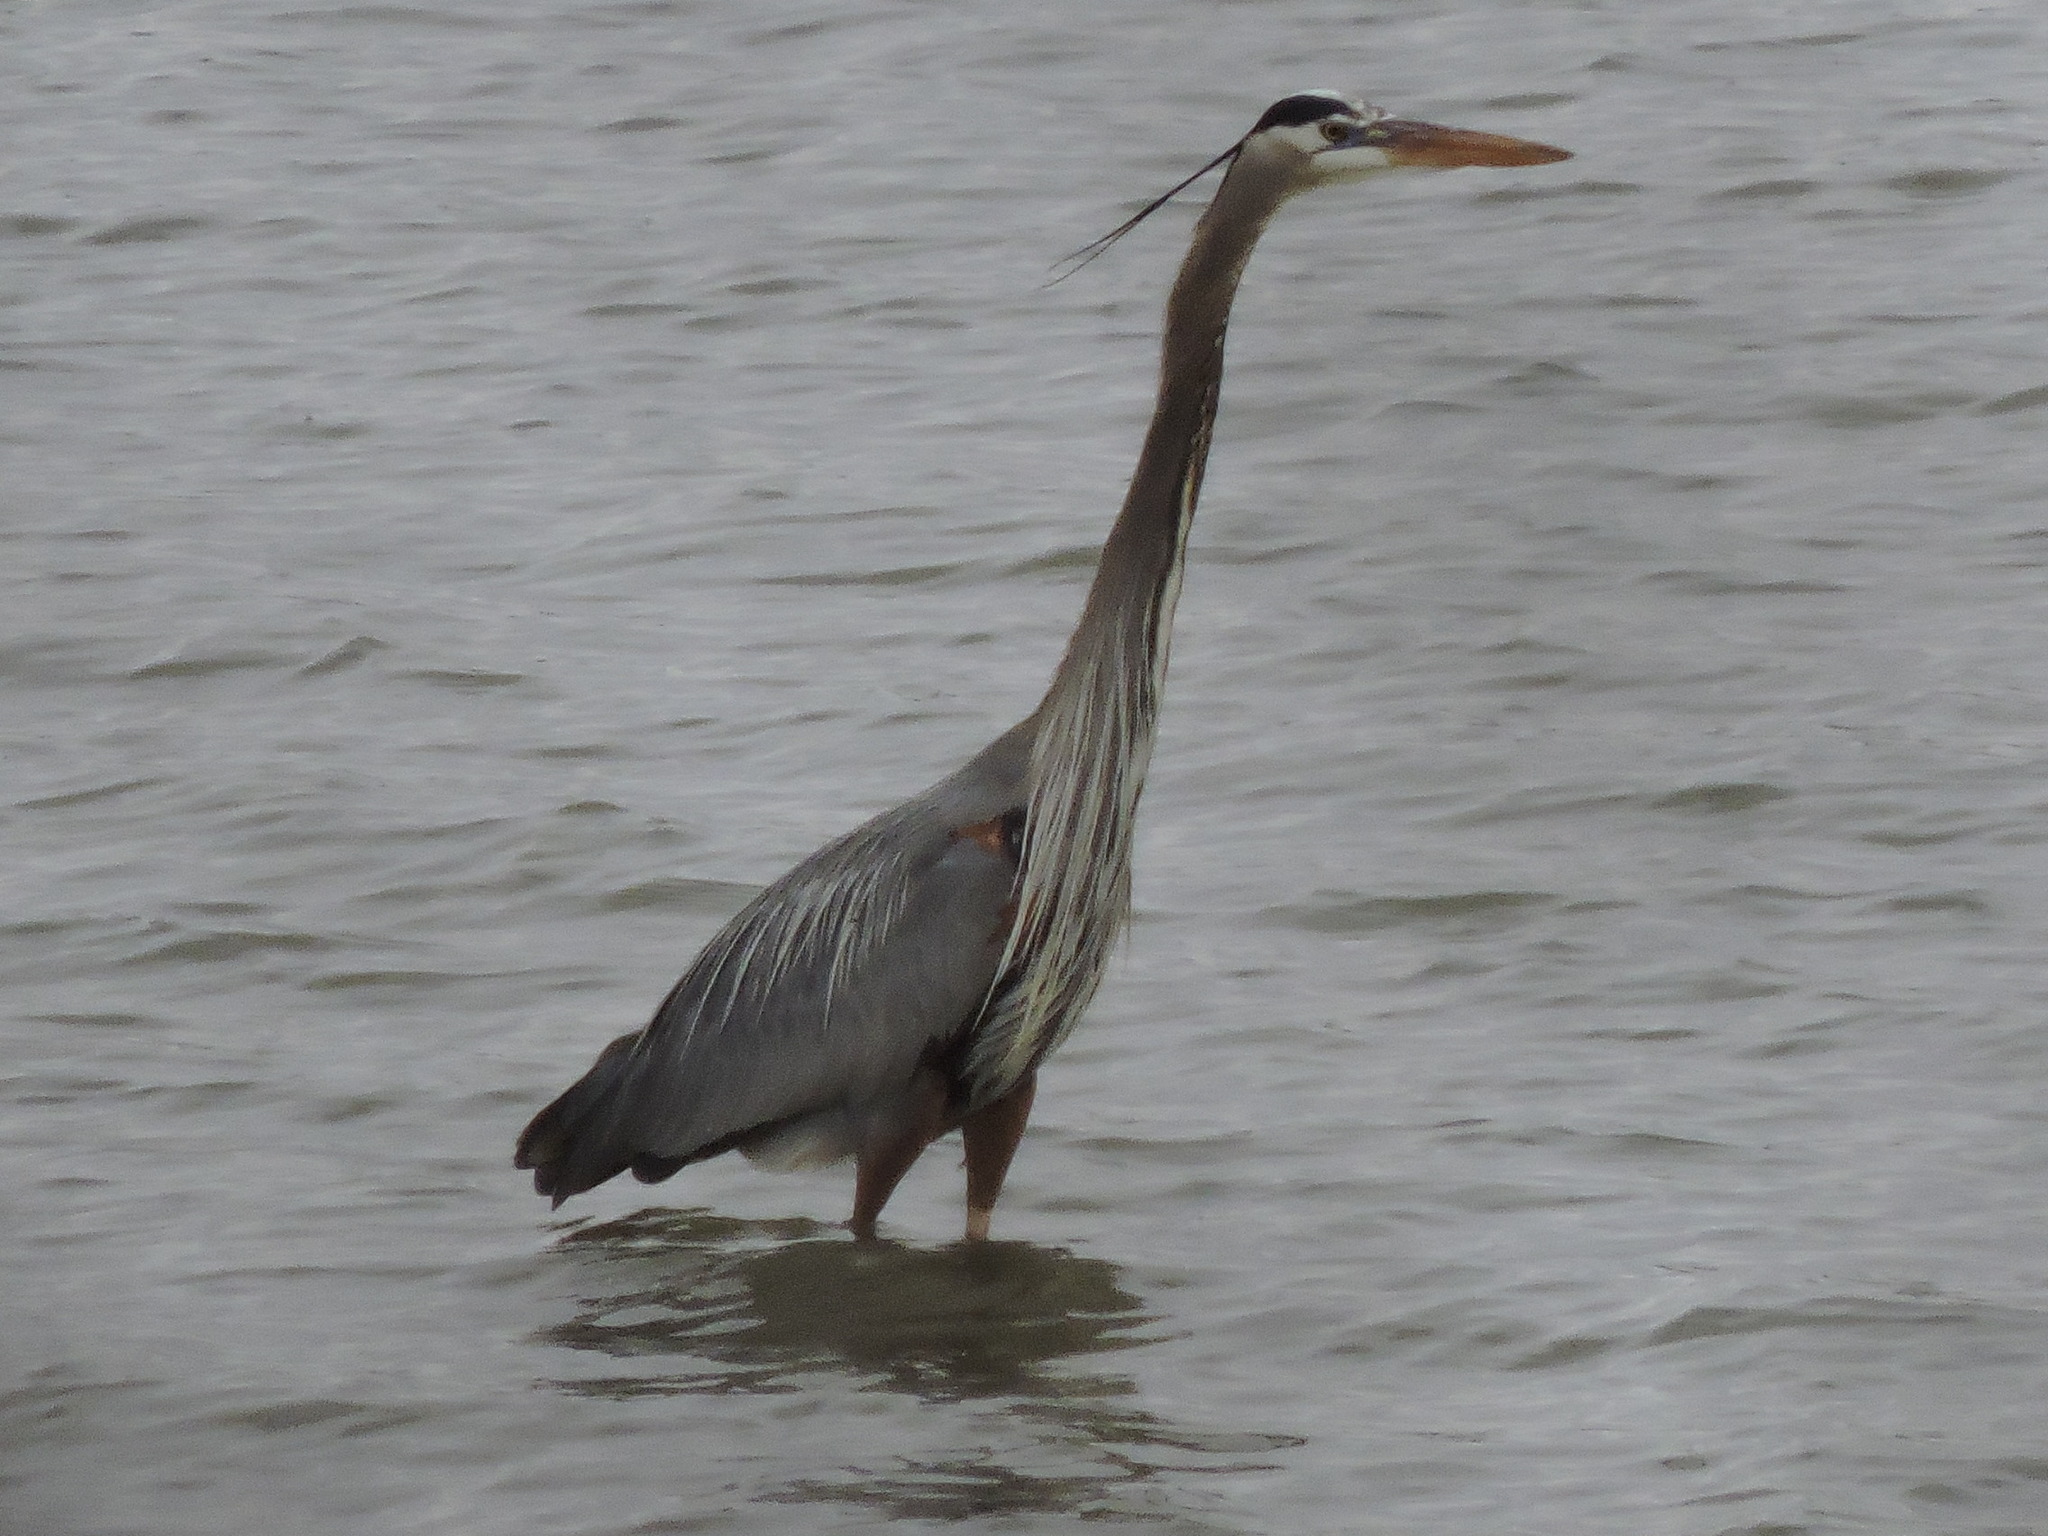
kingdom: Animalia
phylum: Chordata
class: Aves
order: Pelecaniformes
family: Ardeidae
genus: Ardea
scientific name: Ardea herodias
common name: Great blue heron
